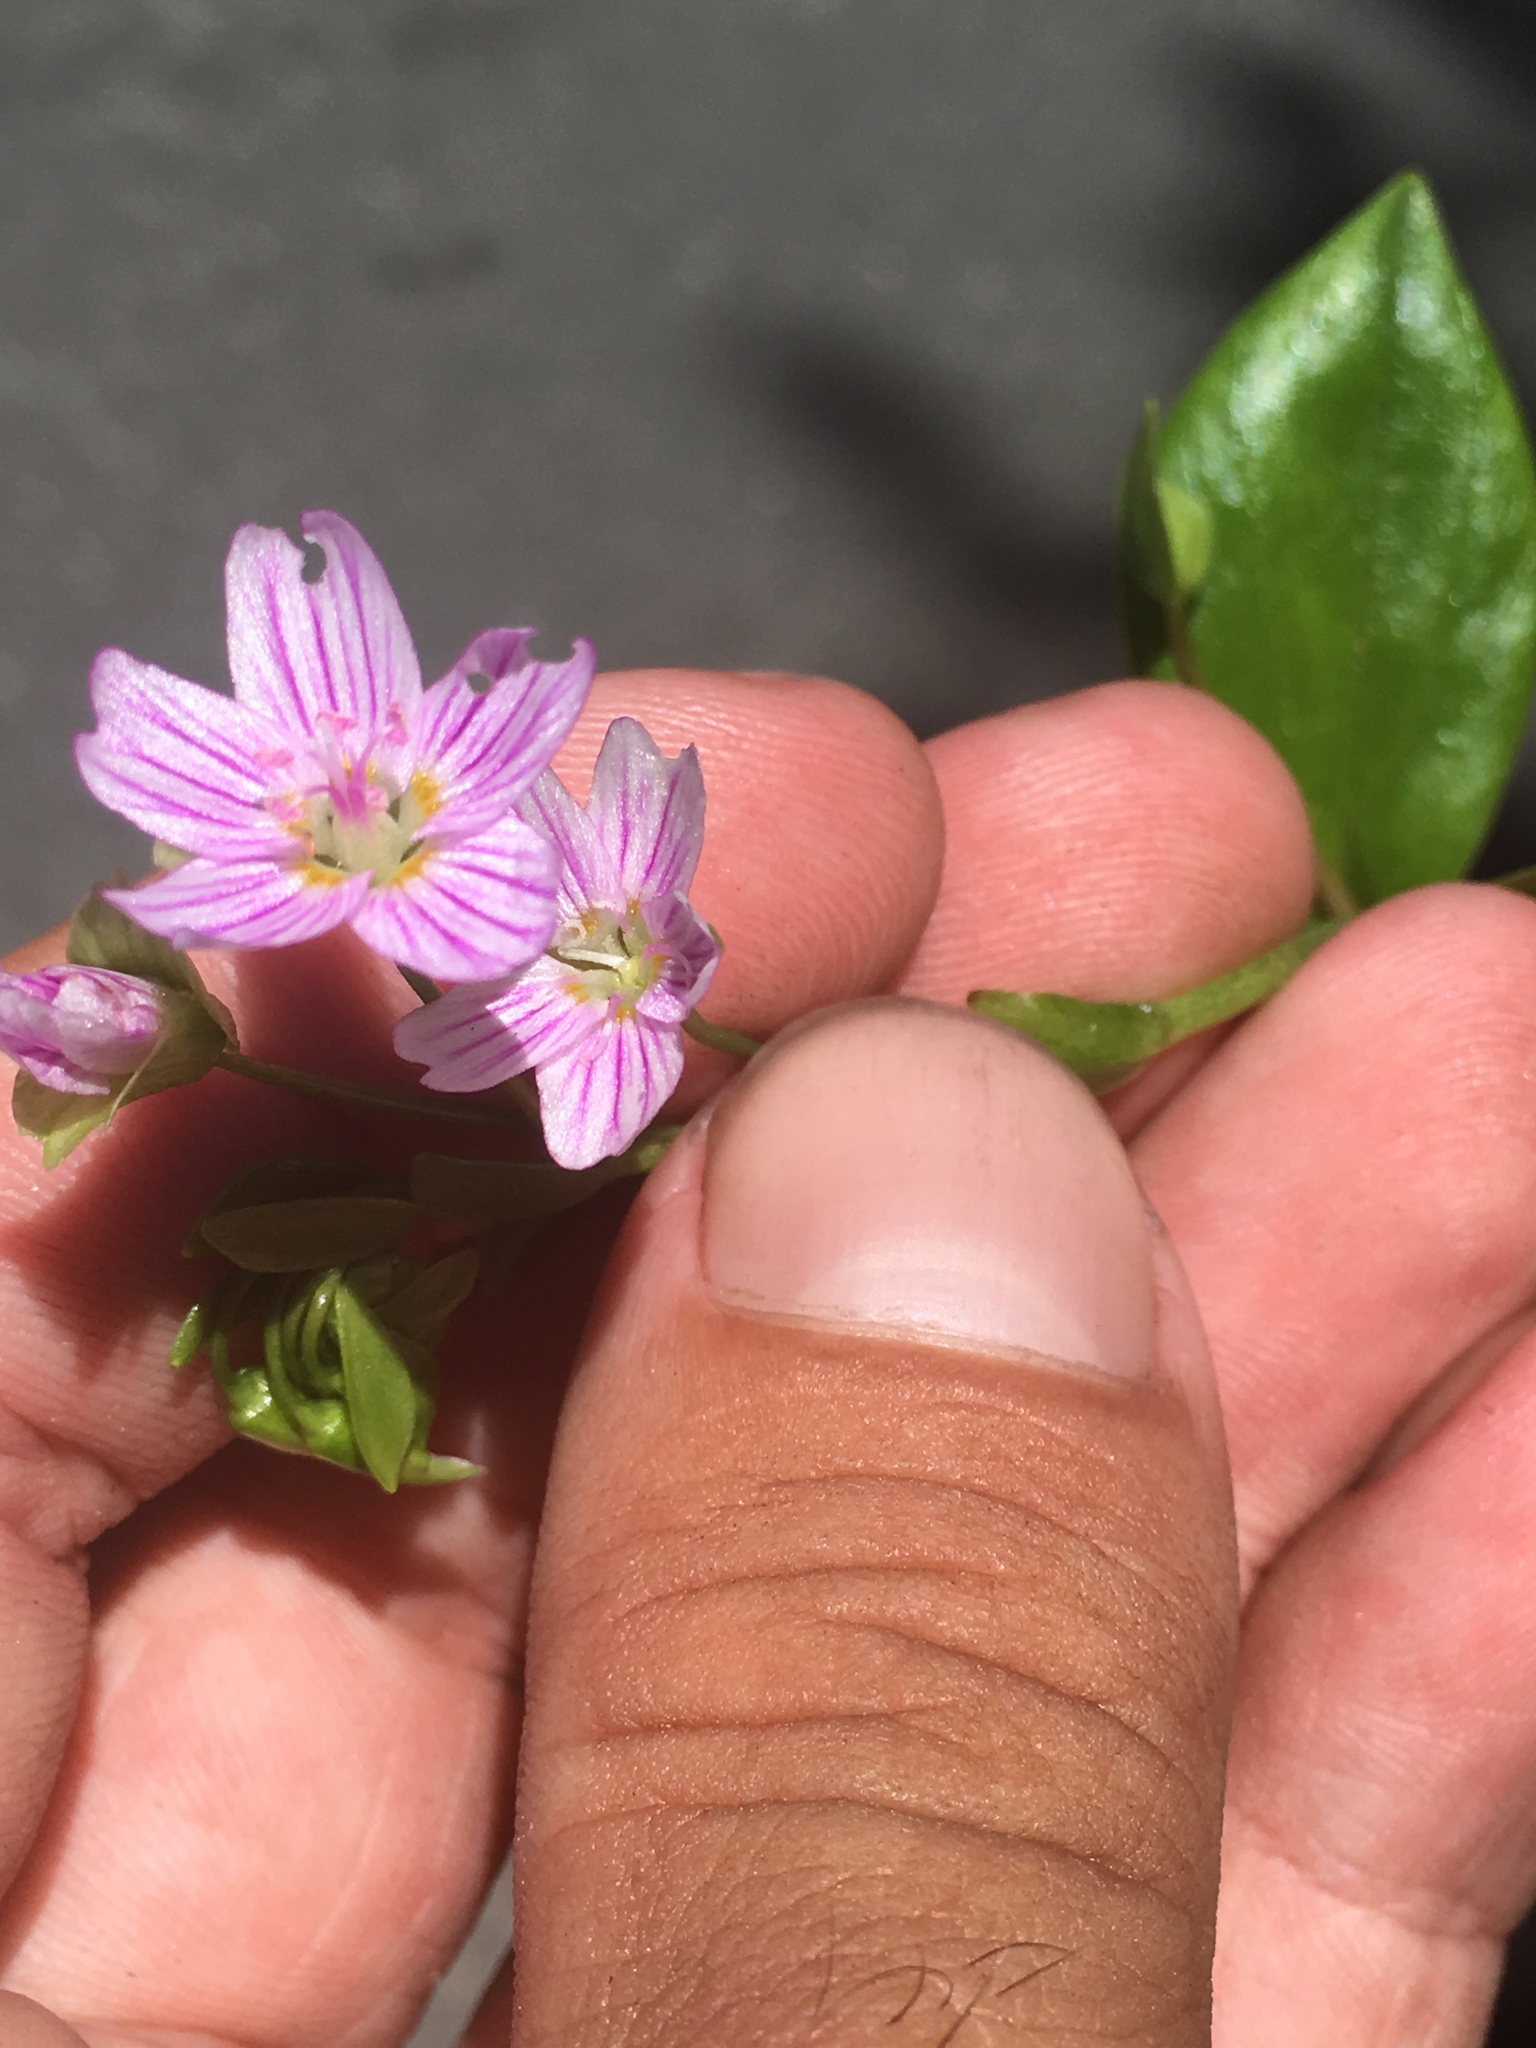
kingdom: Plantae
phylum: Tracheophyta
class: Magnoliopsida
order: Caryophyllales
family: Montiaceae
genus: Claytonia
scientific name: Claytonia sibirica
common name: Pink purslane
